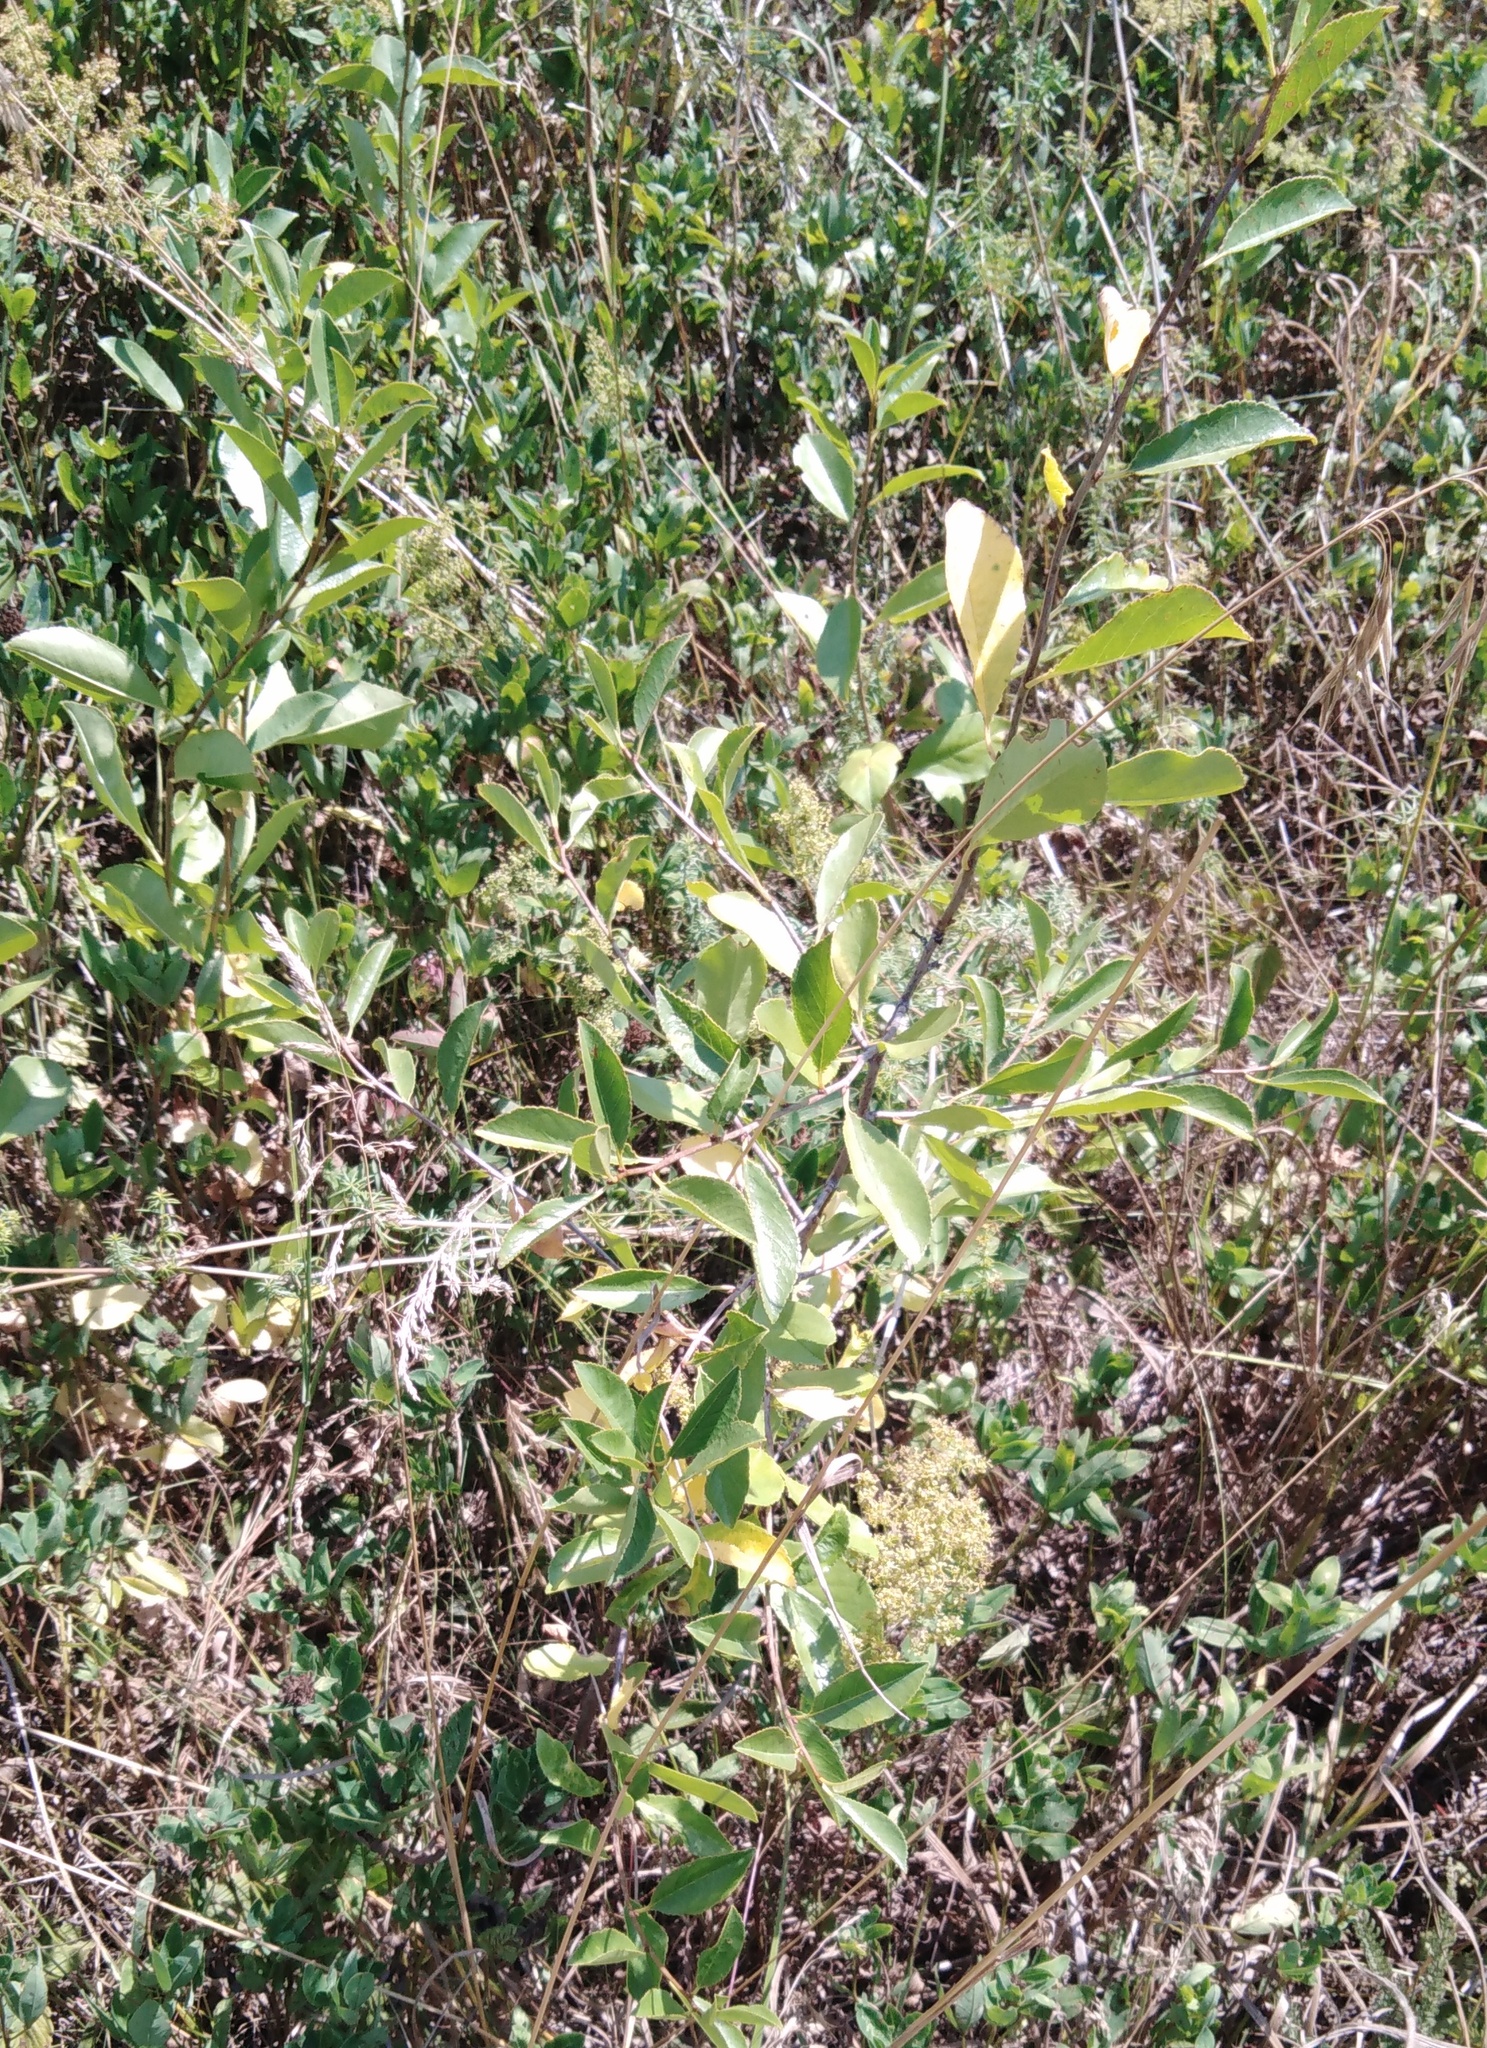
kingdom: Plantae
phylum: Tracheophyta
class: Magnoliopsida
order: Rosales
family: Rosaceae
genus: Prunus
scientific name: Prunus tenella
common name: Dwarf russian almond
